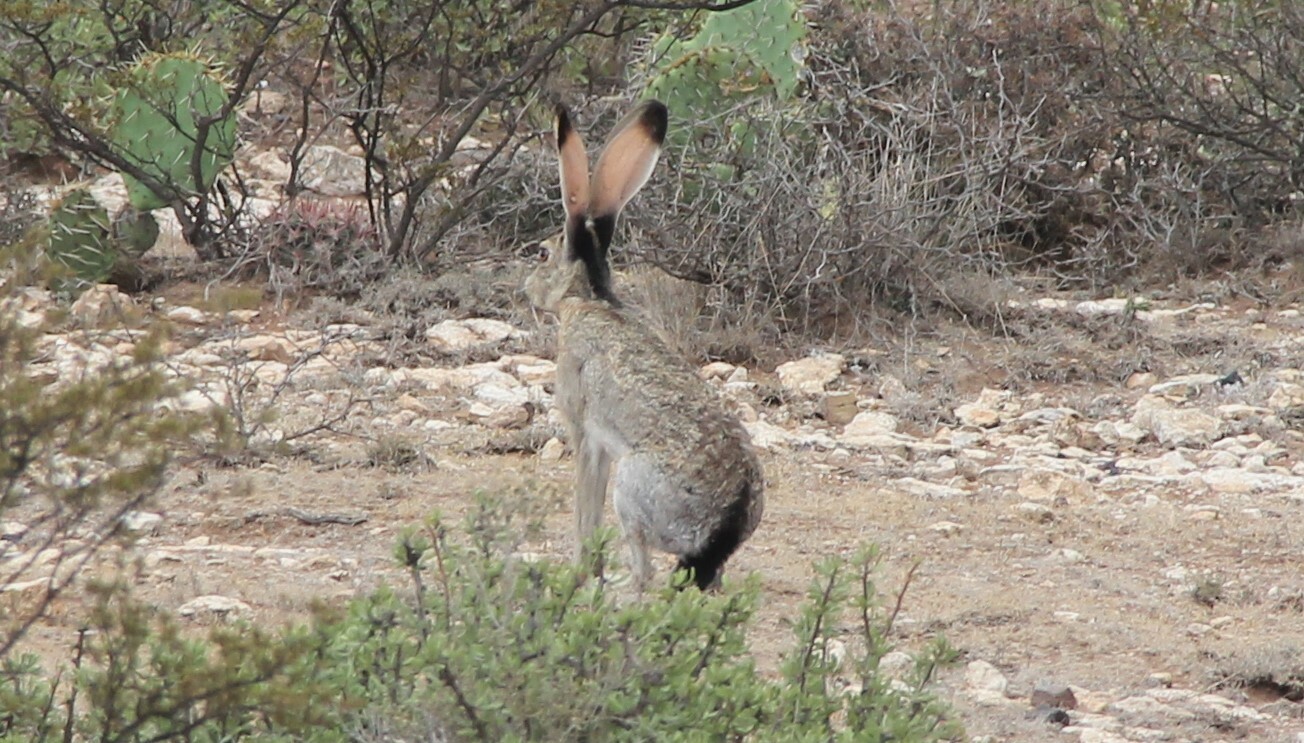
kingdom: Animalia
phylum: Chordata
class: Mammalia
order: Lagomorpha
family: Leporidae
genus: Lepus
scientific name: Lepus californicus
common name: Black-tailed jackrabbit
